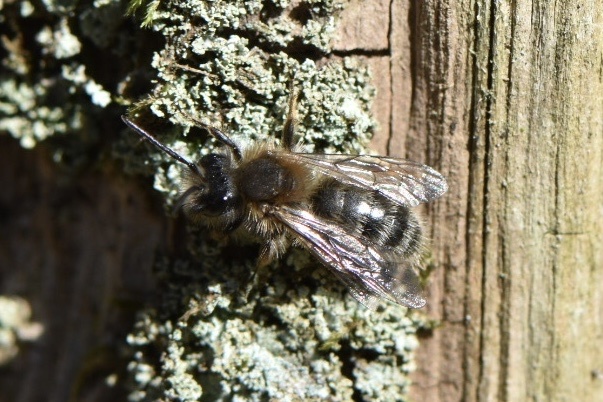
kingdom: Animalia
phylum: Arthropoda
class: Insecta
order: Hymenoptera
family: Andrenidae
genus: Andrena
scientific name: Andrena clarkella
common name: Clarke's mining bee
